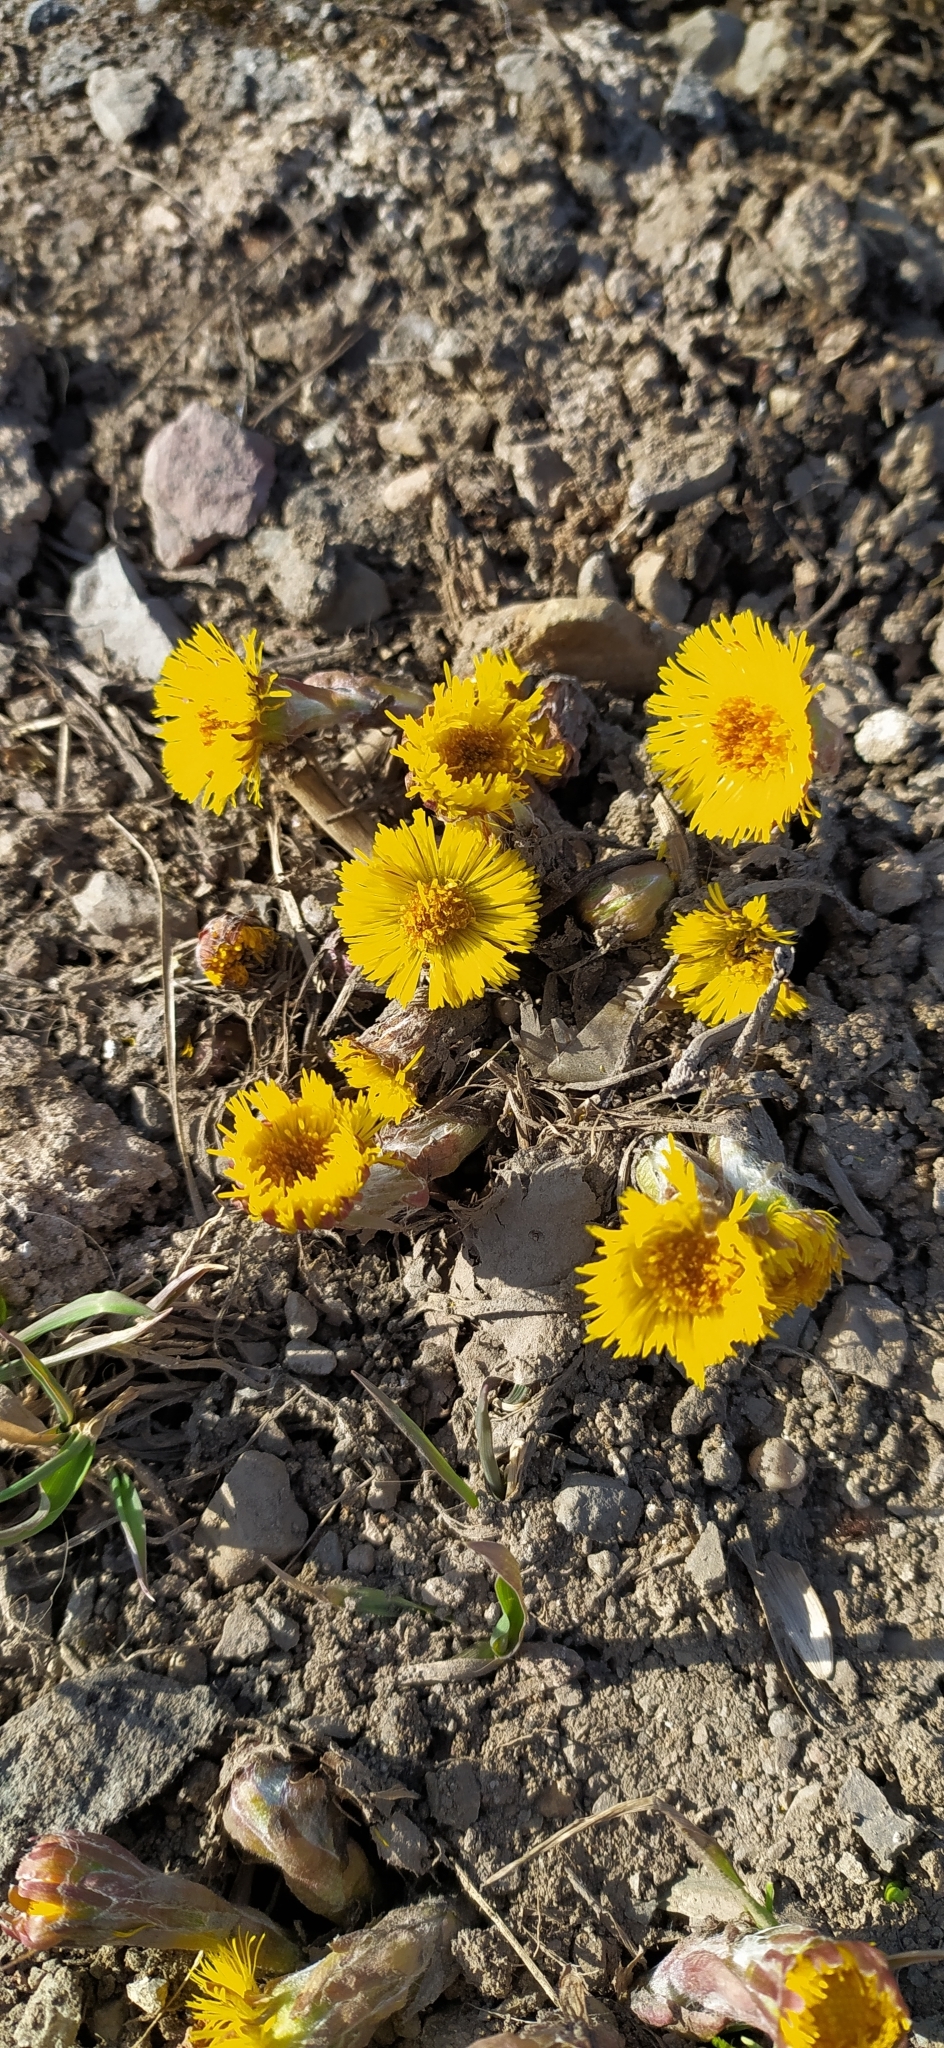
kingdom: Plantae
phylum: Tracheophyta
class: Magnoliopsida
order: Asterales
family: Asteraceae
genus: Tussilago
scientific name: Tussilago farfara
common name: Coltsfoot
